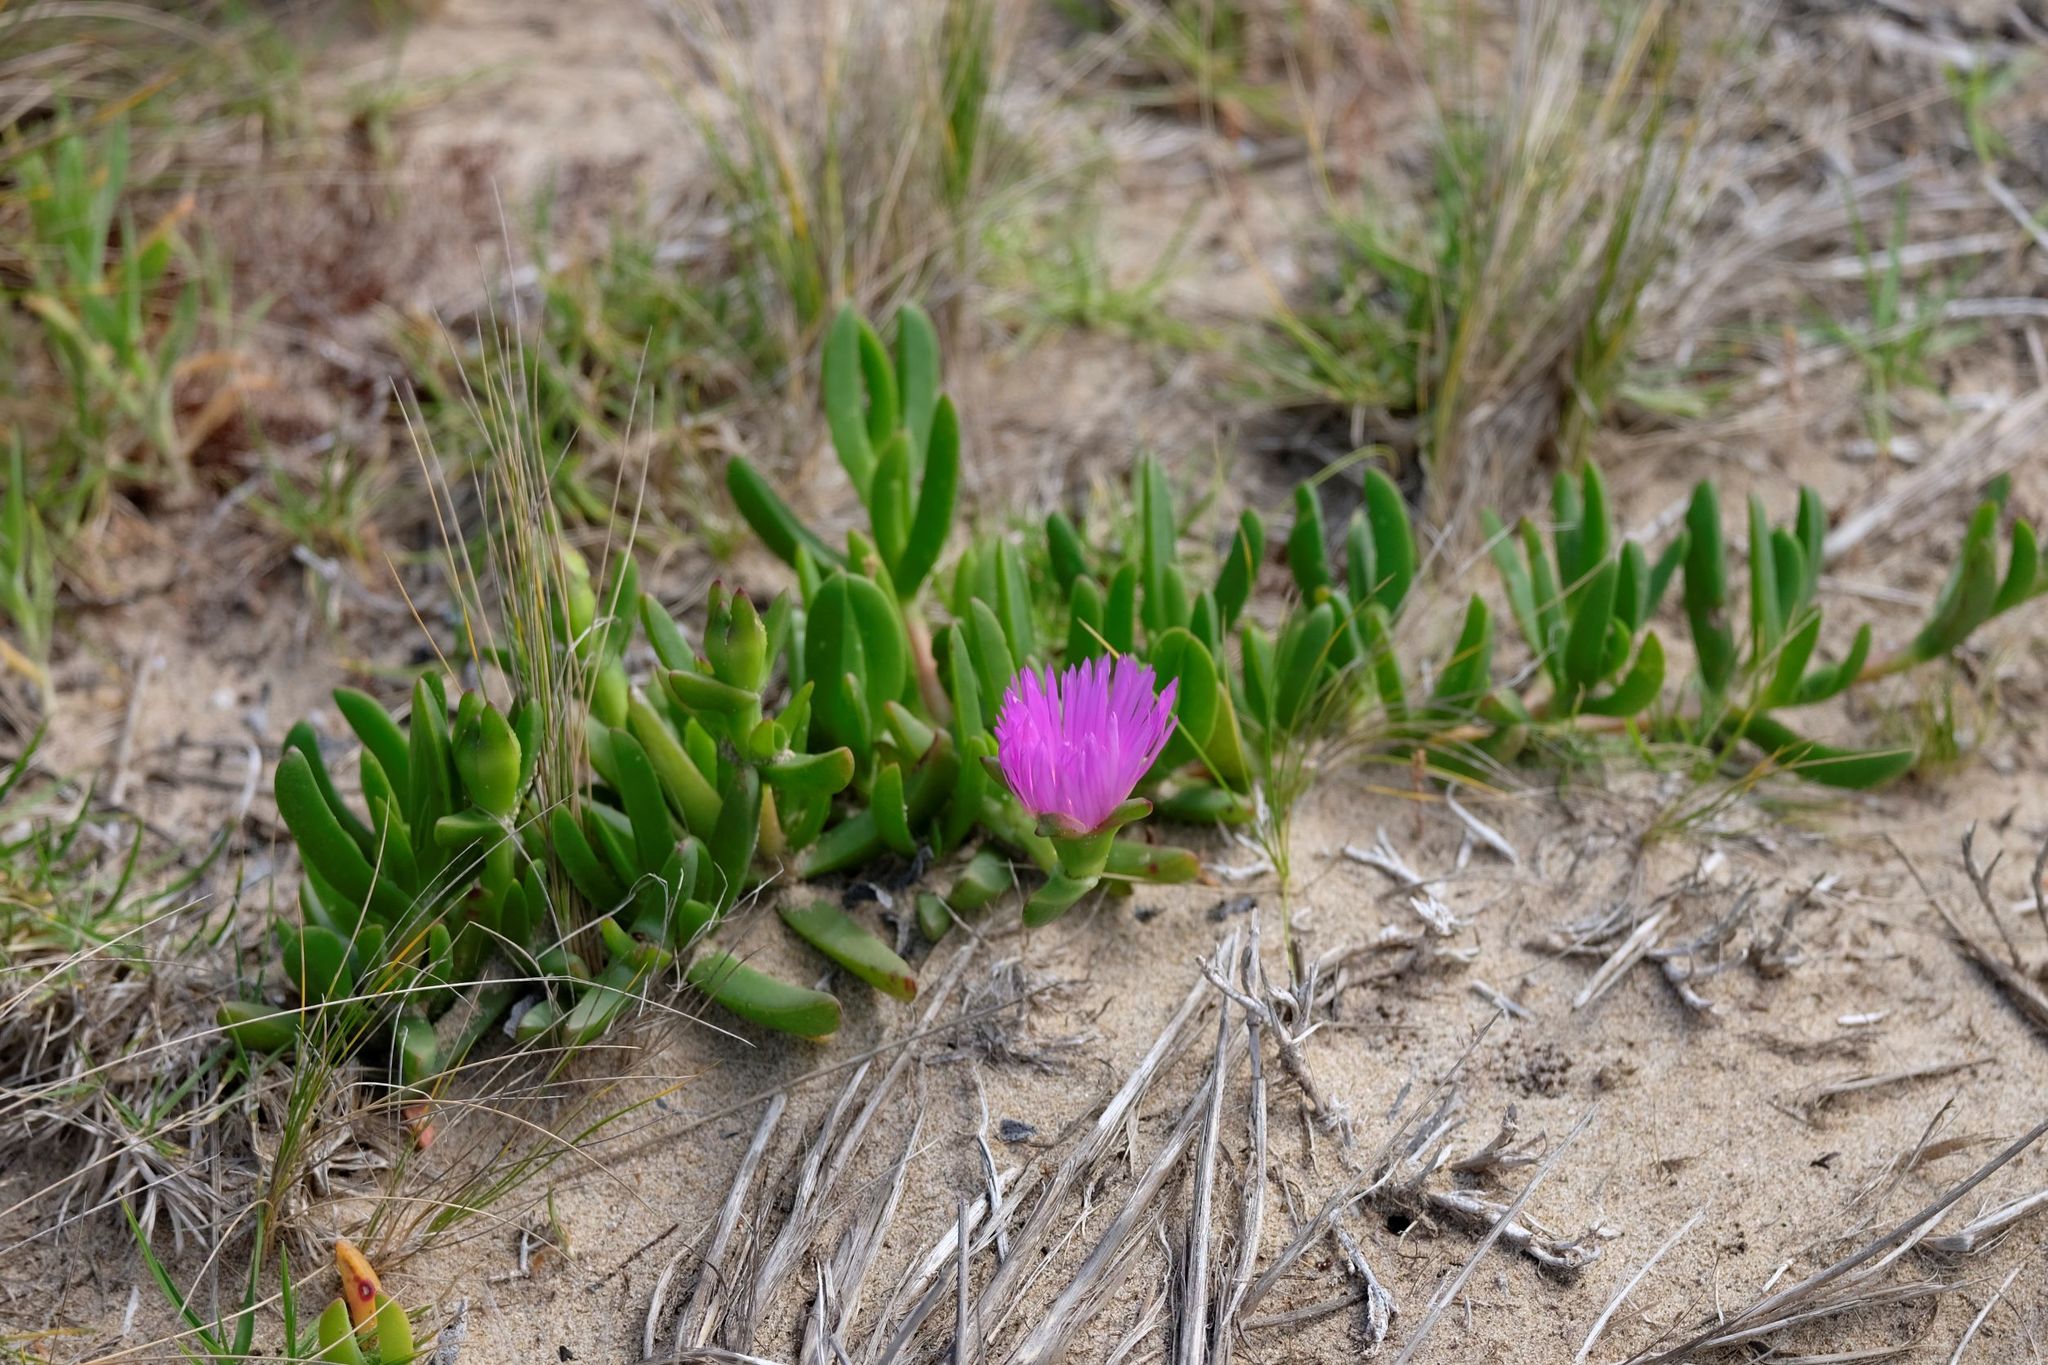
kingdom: Plantae
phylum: Tracheophyta
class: Magnoliopsida
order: Caryophyllales
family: Aizoaceae
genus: Carpobrotus
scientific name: Carpobrotus rossii
